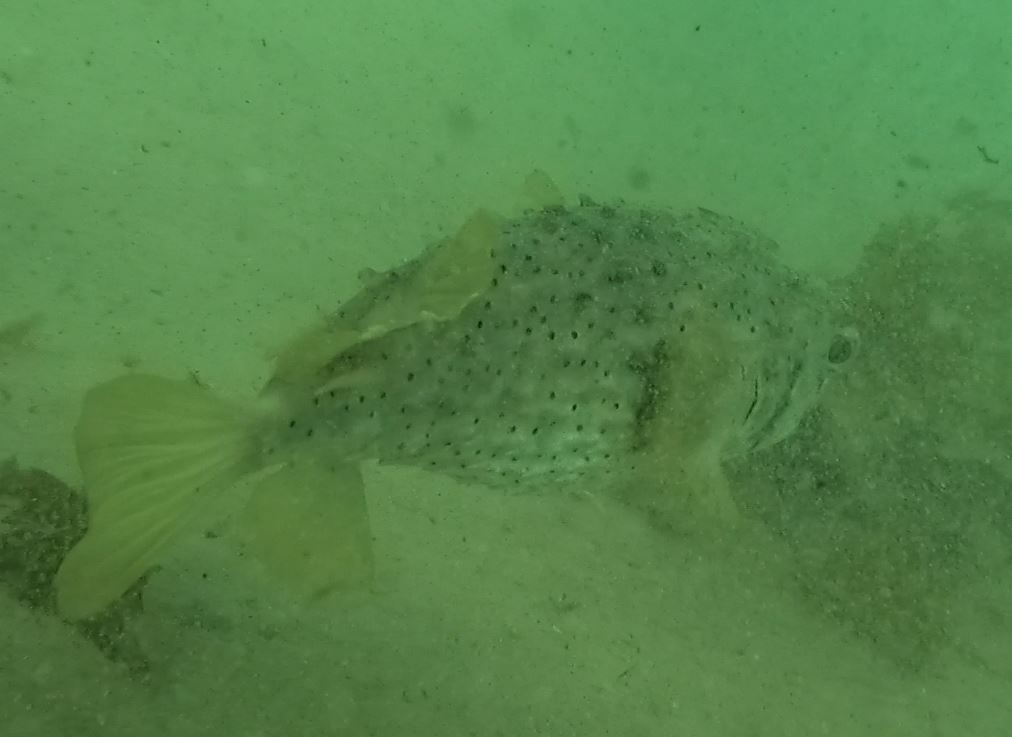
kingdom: Animalia
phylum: Chordata
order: Tetraodontiformes
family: Diodontidae
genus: Dicotylichthys
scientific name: Dicotylichthys punctulatus
